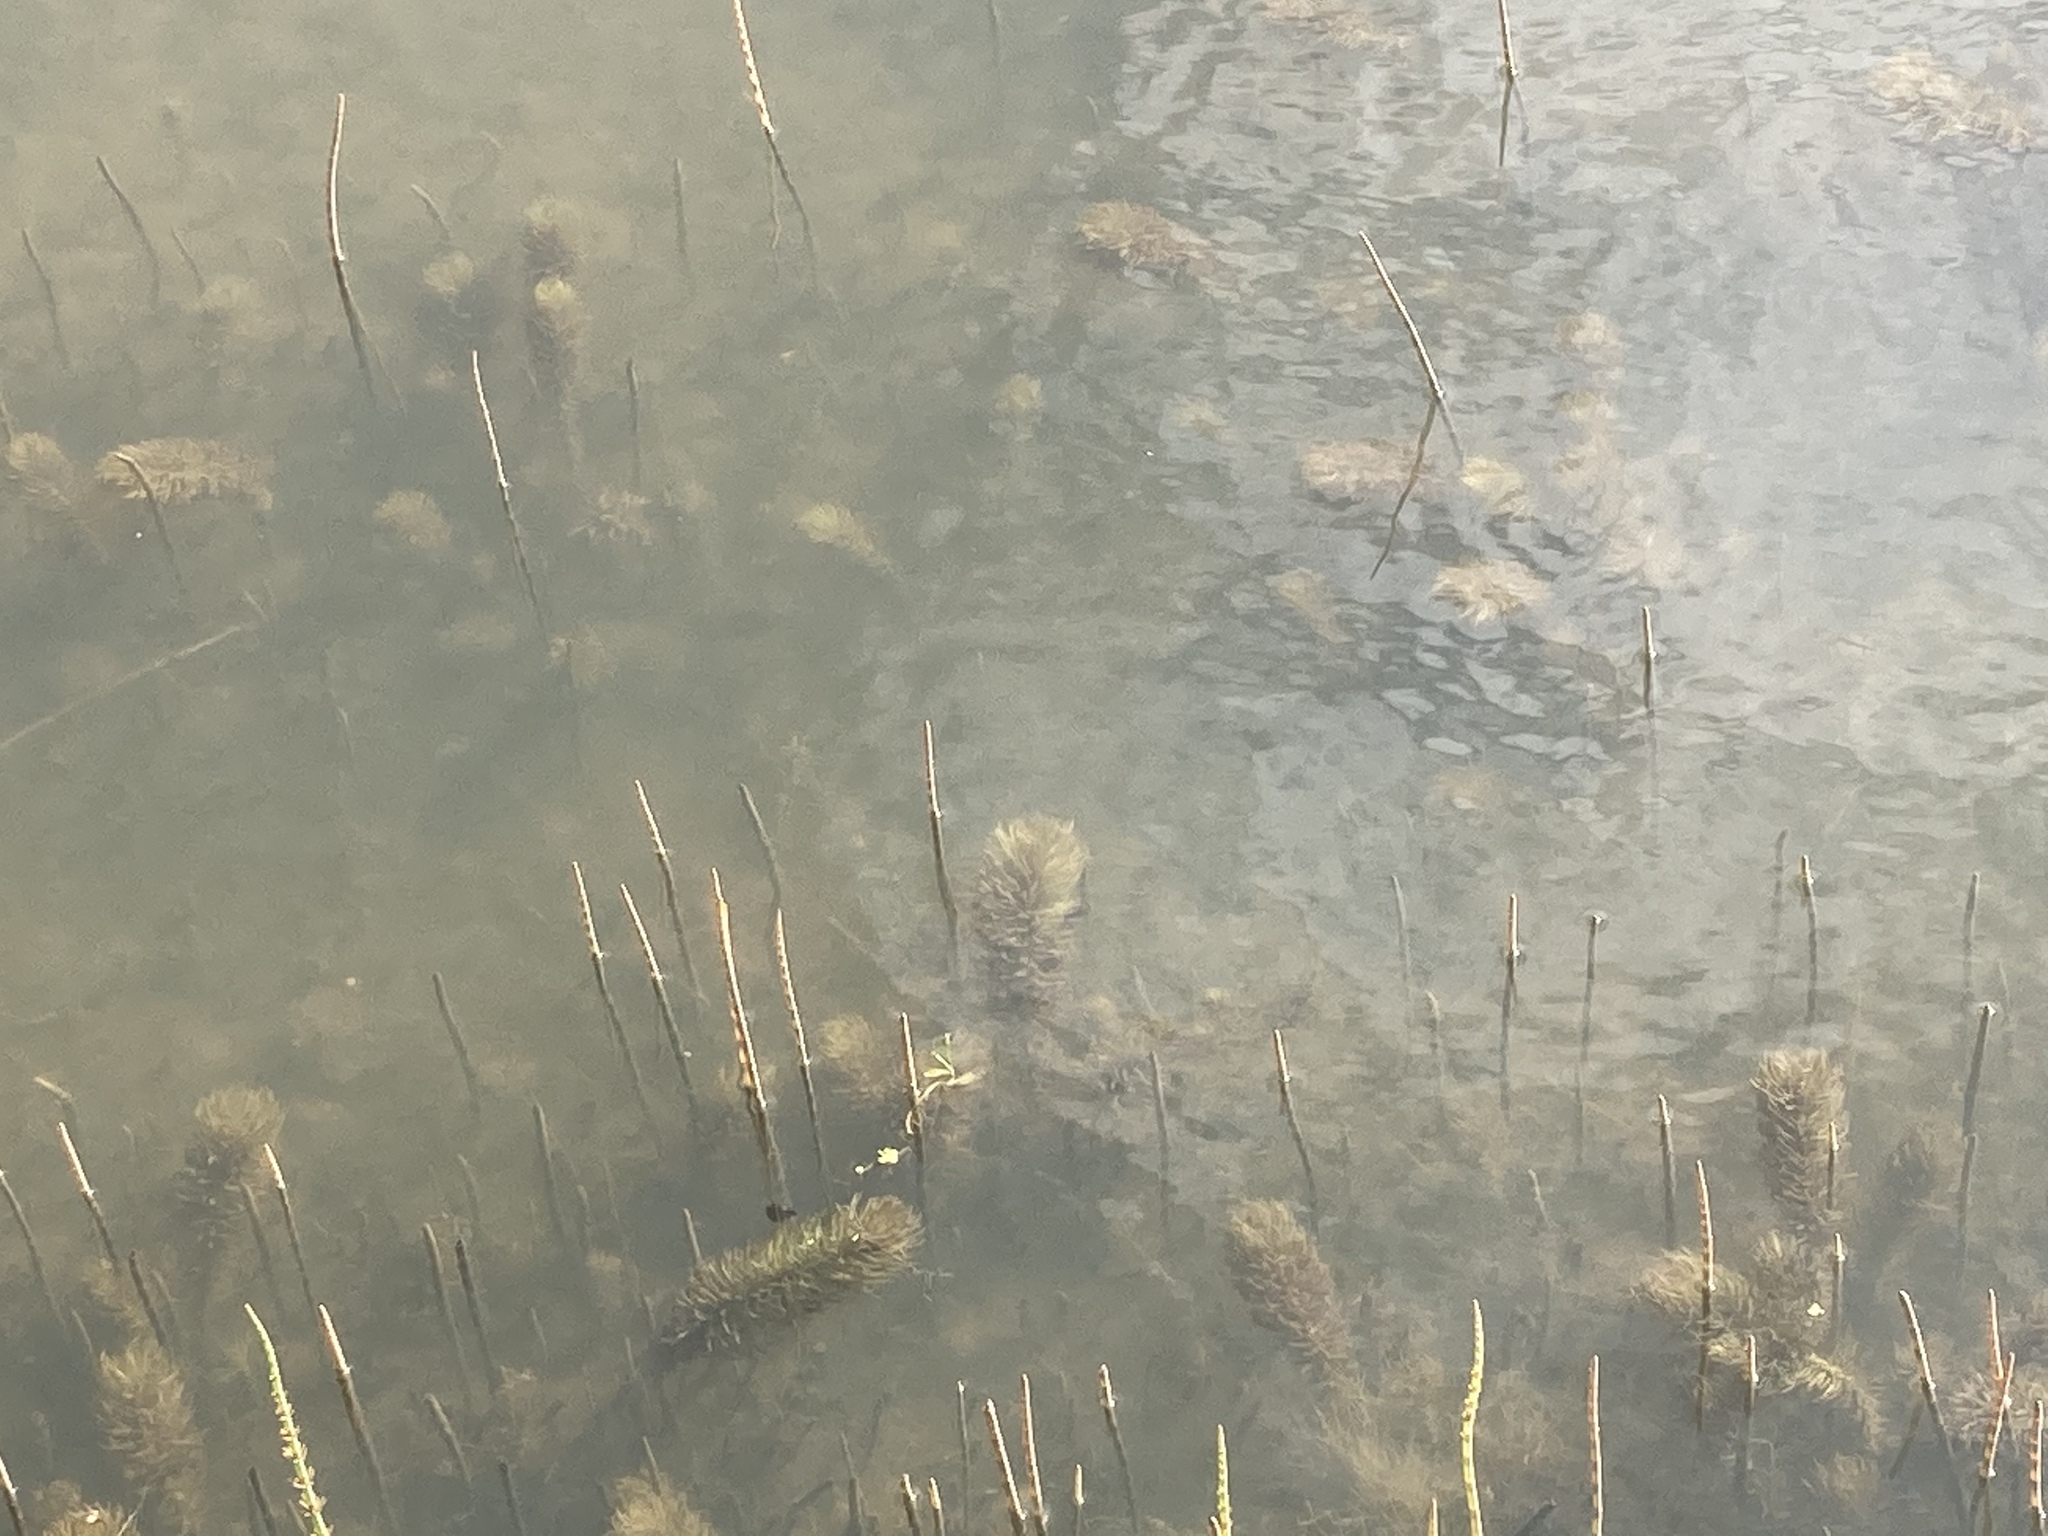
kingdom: Plantae
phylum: Tracheophyta
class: Magnoliopsida
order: Lamiales
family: Plantaginaceae
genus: Hippuris
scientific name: Hippuris vulgaris
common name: Mare's-tail
